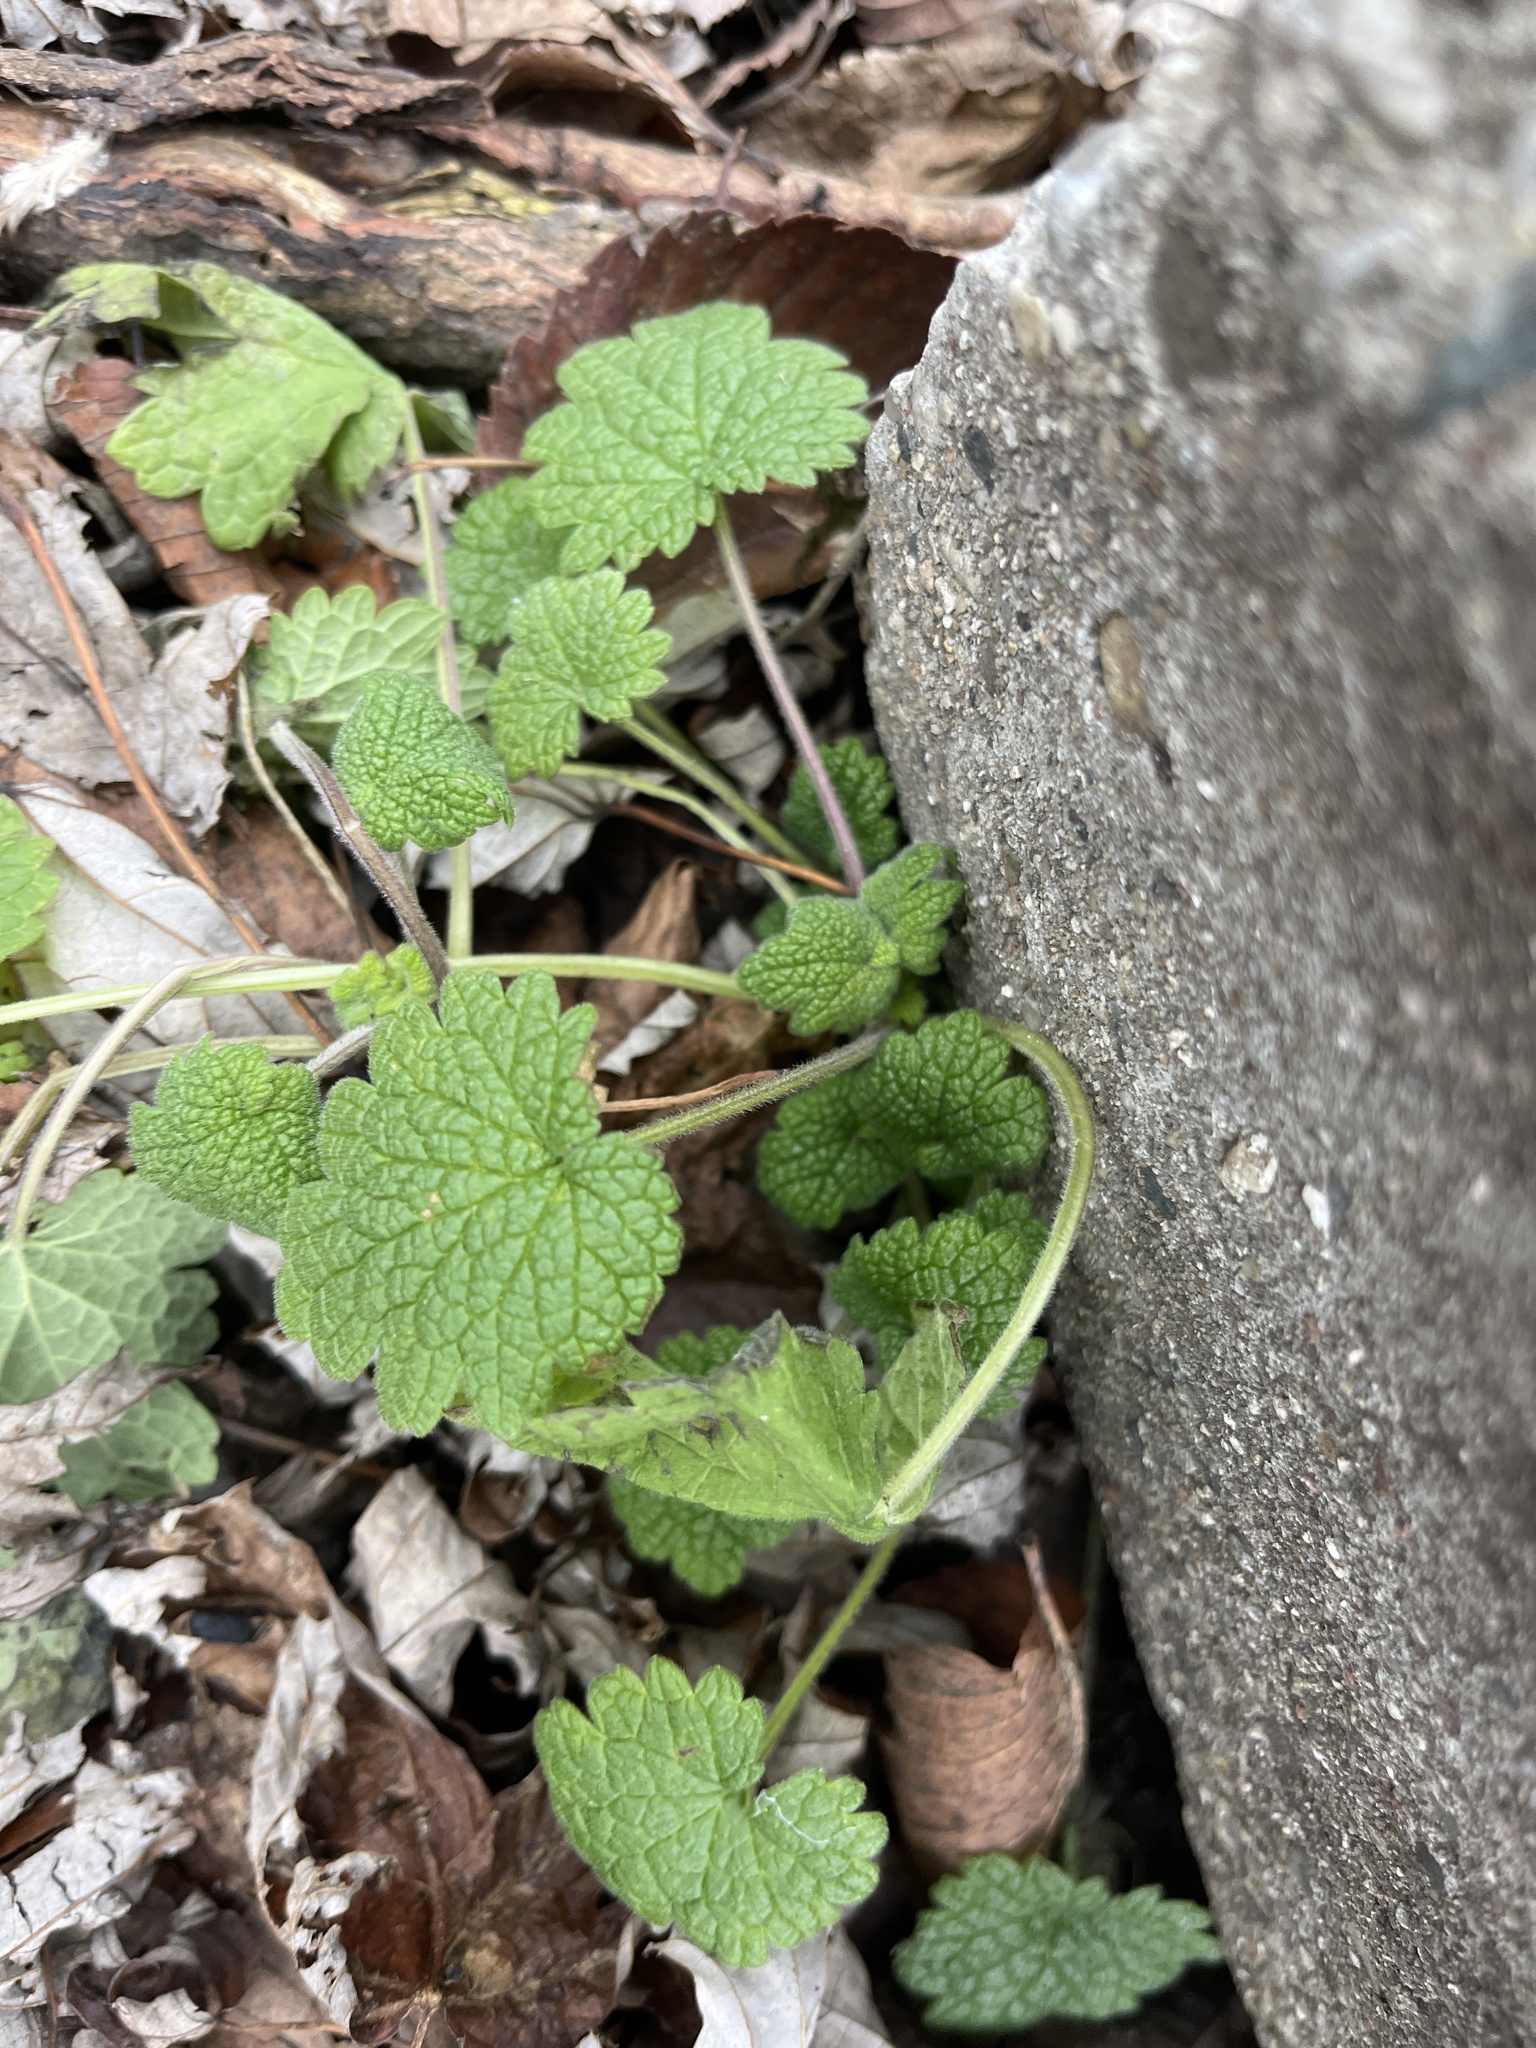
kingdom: Plantae
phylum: Tracheophyta
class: Magnoliopsida
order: Lamiales
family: Lamiaceae
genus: Leonurus
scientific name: Leonurus cardiaca
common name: Motherwort
